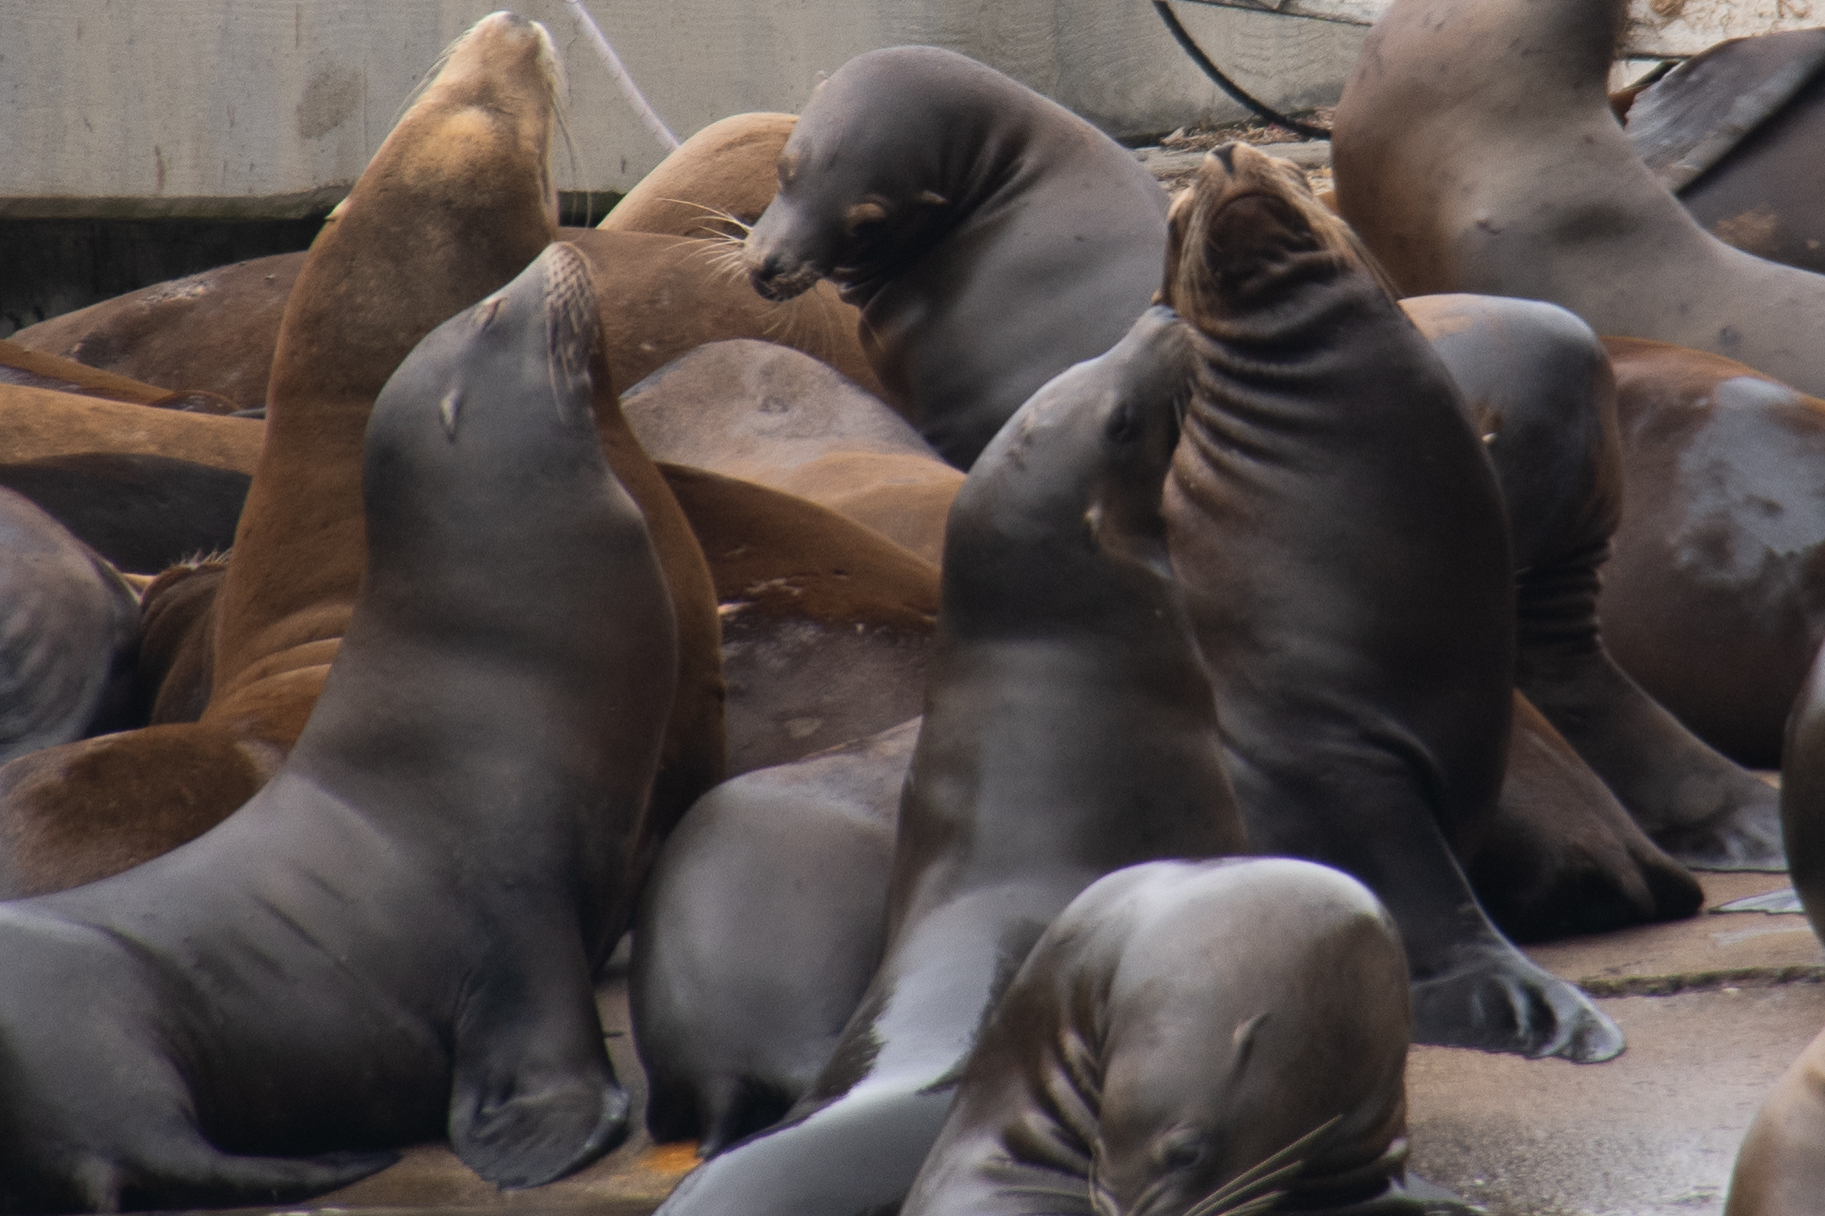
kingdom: Animalia
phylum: Chordata
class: Mammalia
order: Carnivora
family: Otariidae
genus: Zalophus
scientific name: Zalophus californianus
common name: California sea lion
